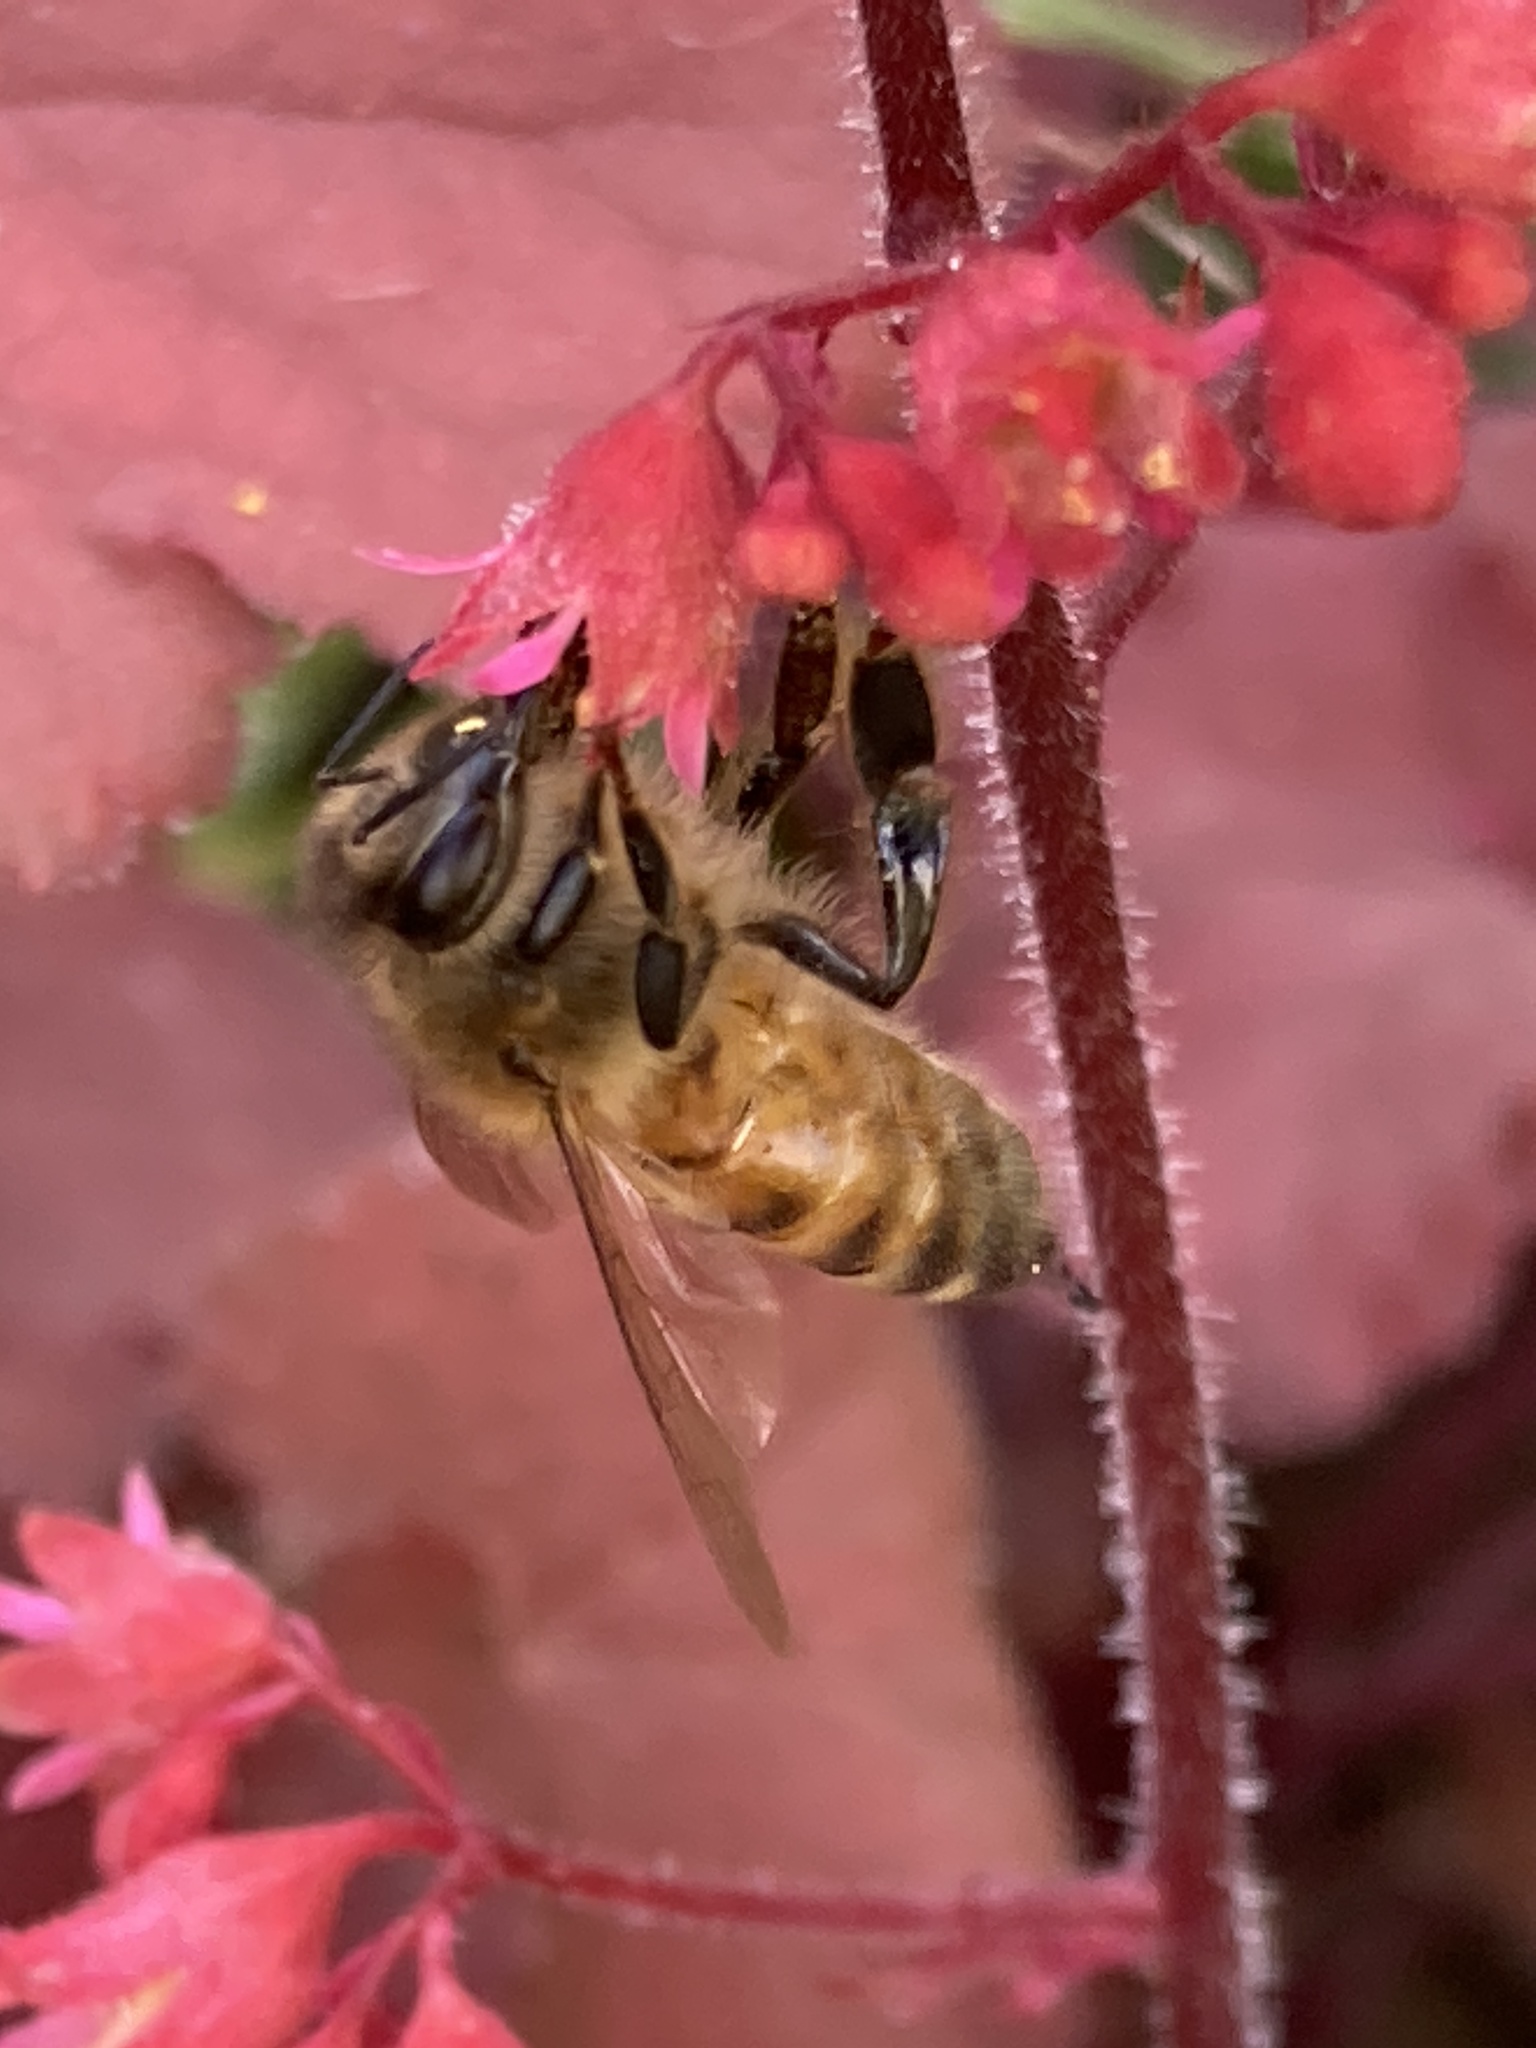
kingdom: Animalia
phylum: Arthropoda
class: Insecta
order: Hymenoptera
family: Apidae
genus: Apis
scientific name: Apis mellifera
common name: Honey bee
